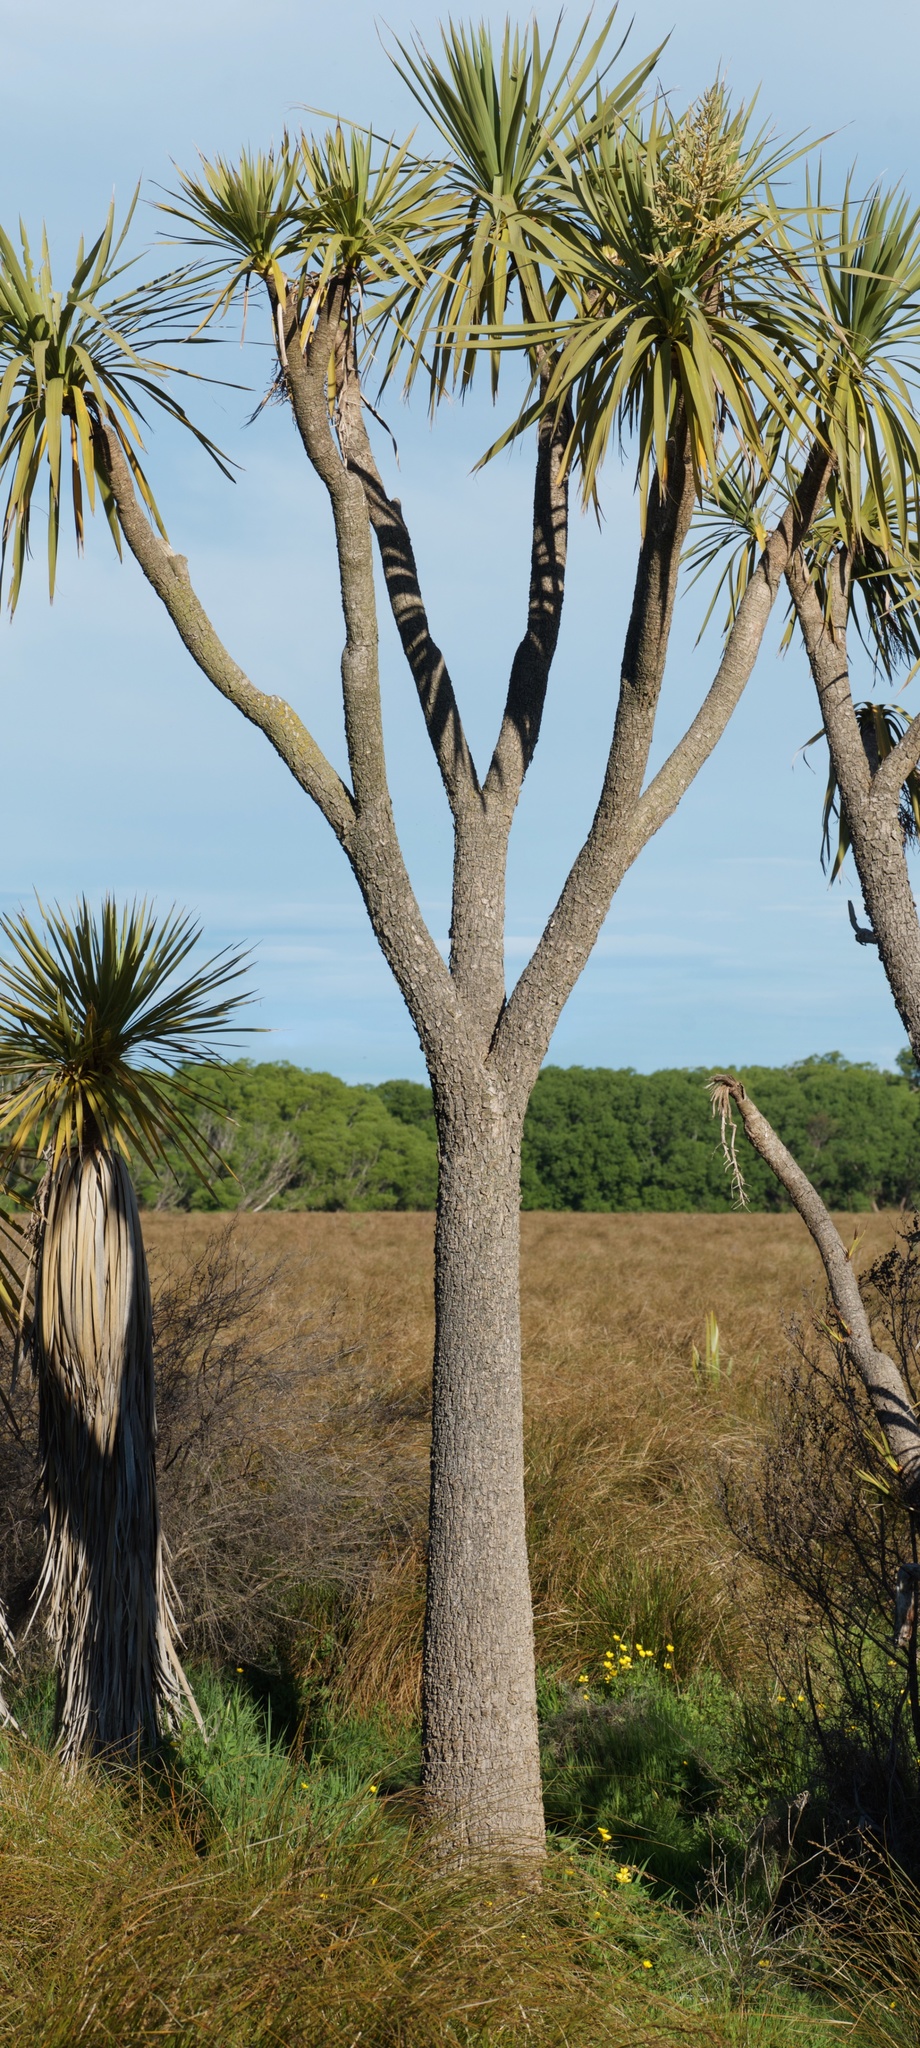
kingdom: Plantae
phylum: Tracheophyta
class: Liliopsida
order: Asparagales
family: Asparagaceae
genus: Cordyline
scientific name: Cordyline australis
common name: Cabbage-palm
